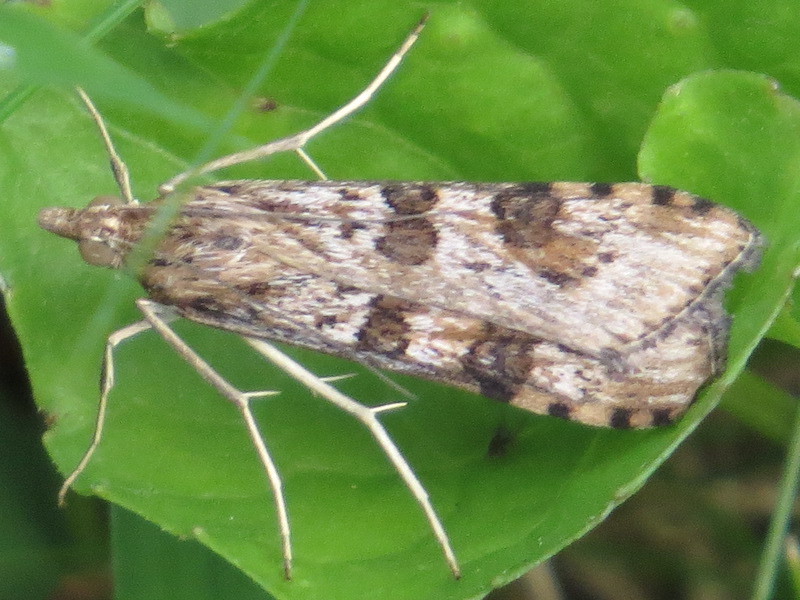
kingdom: Animalia
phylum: Arthropoda
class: Insecta
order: Lepidoptera
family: Crambidae
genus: Nomophila
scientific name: Nomophila nearctica
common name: American rush veneer
